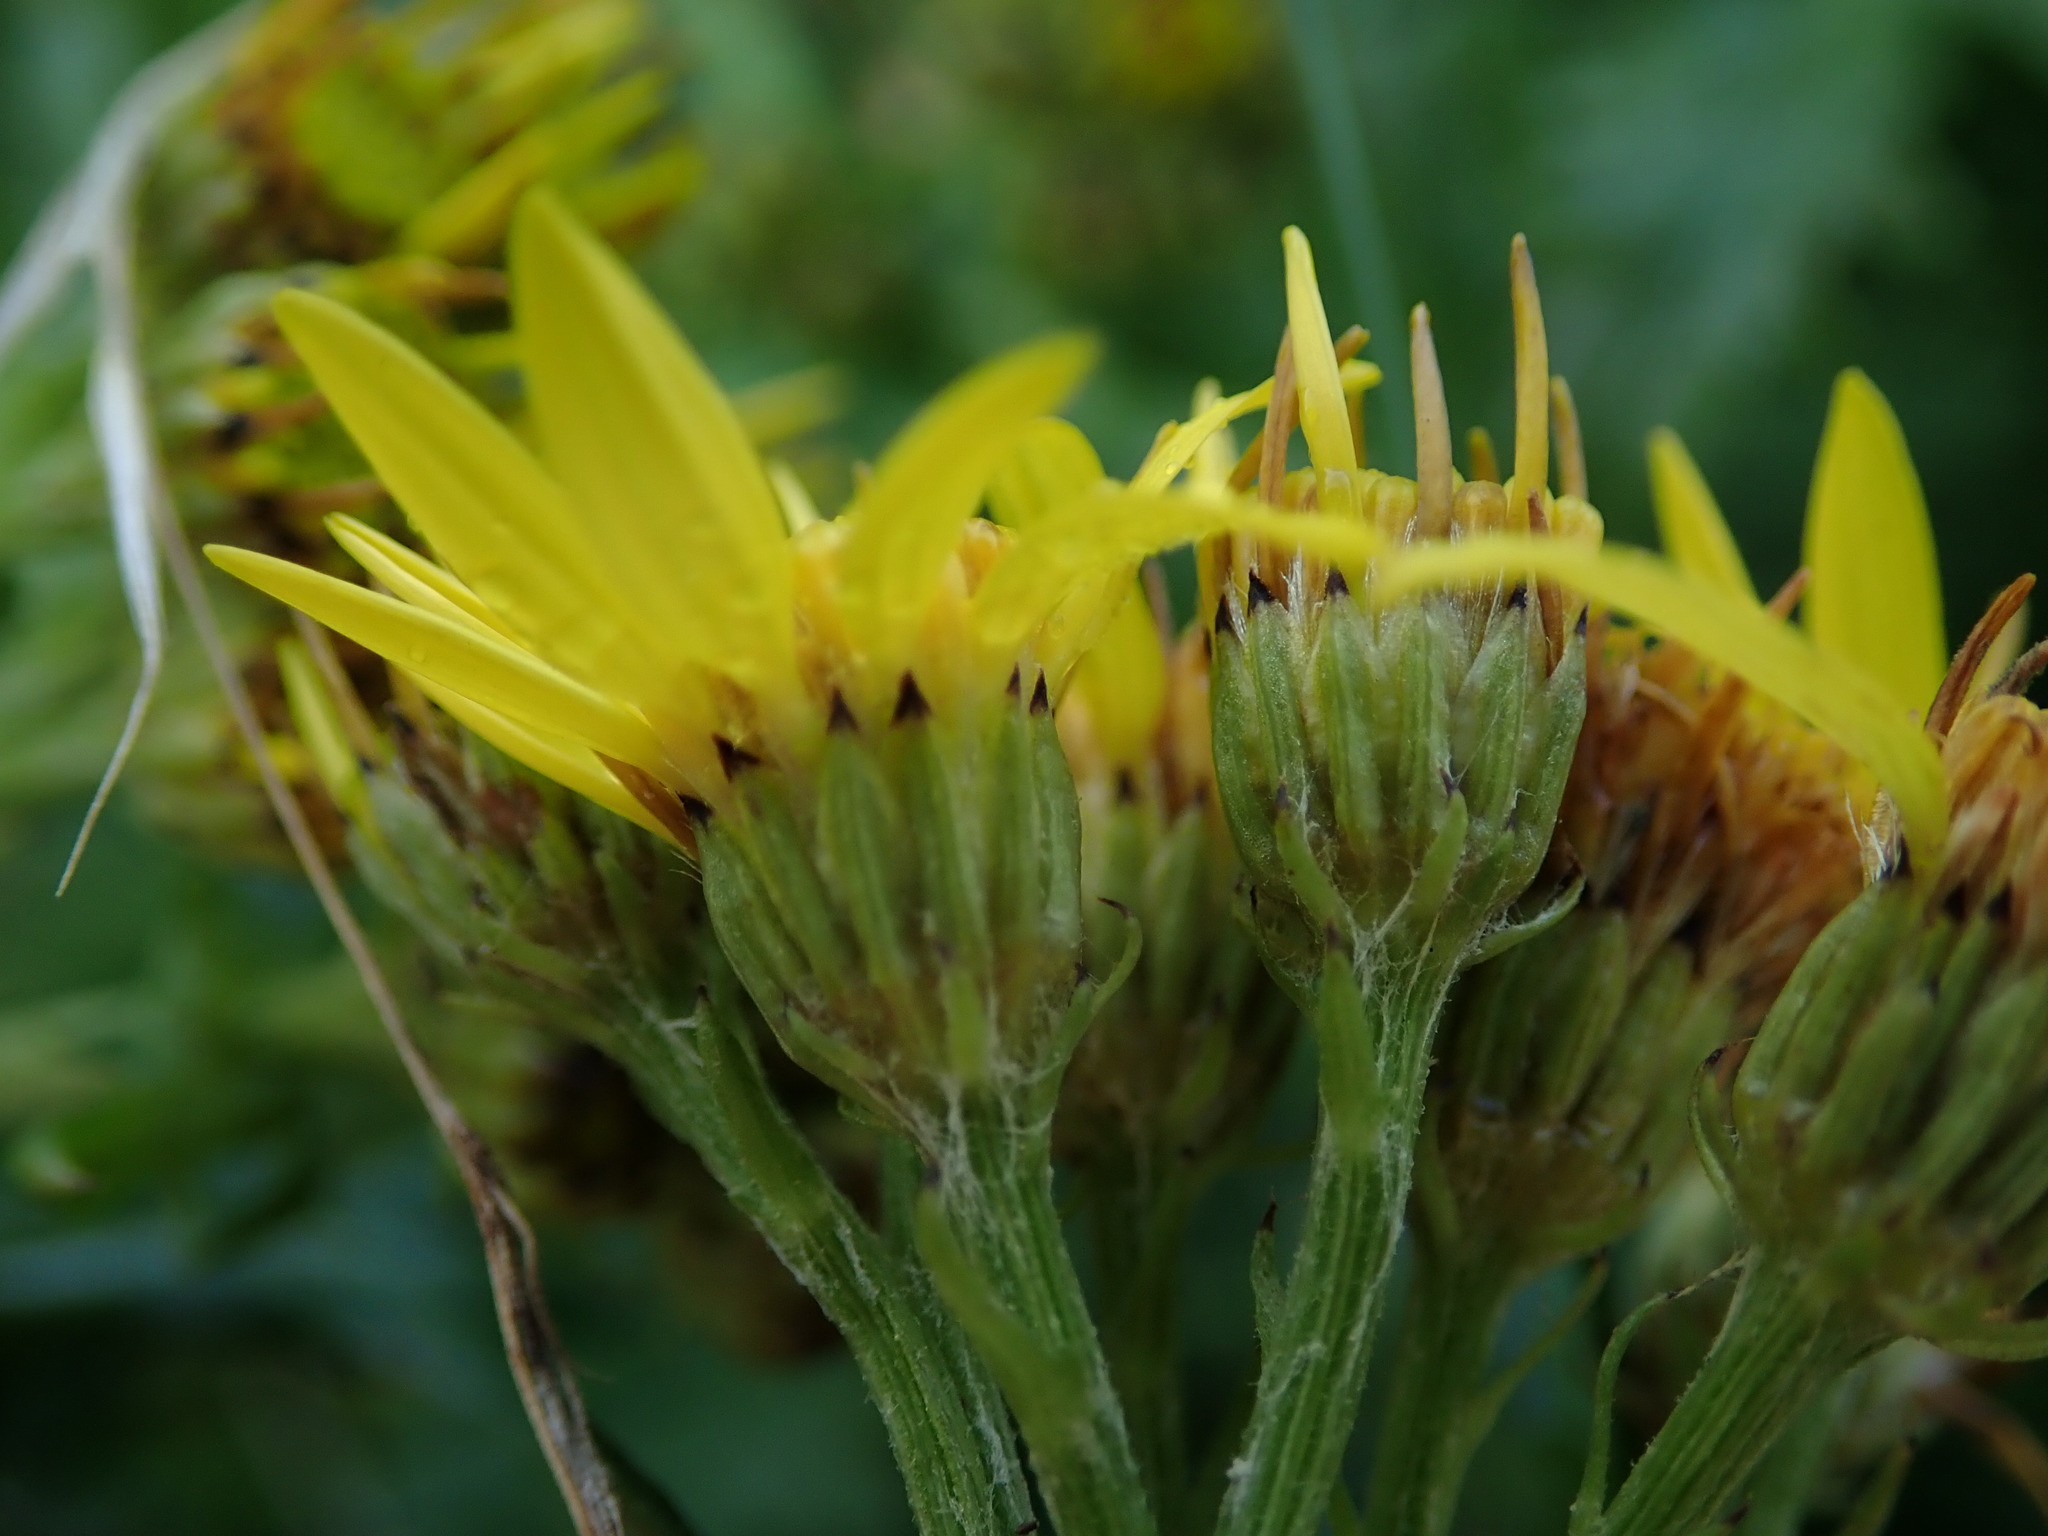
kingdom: Plantae
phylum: Tracheophyta
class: Magnoliopsida
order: Asterales
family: Asteraceae
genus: Jacobaea
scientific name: Jacobaea vulgaris
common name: Stinking willie
